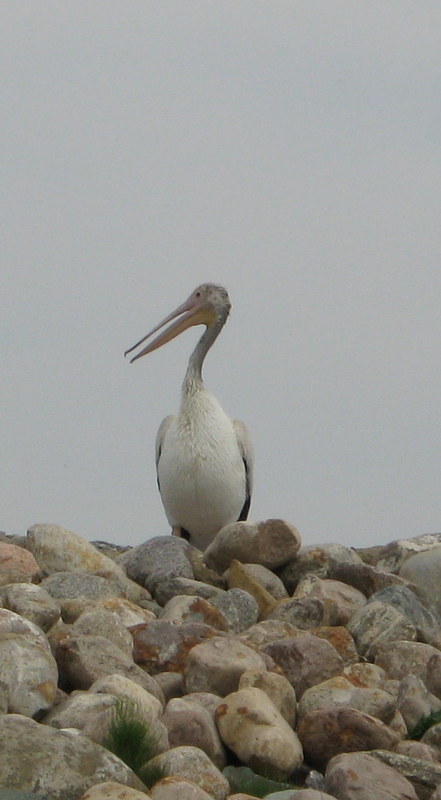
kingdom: Animalia
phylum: Chordata
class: Aves
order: Pelecaniformes
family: Pelecanidae
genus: Pelecanus
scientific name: Pelecanus erythrorhynchos
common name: American white pelican
